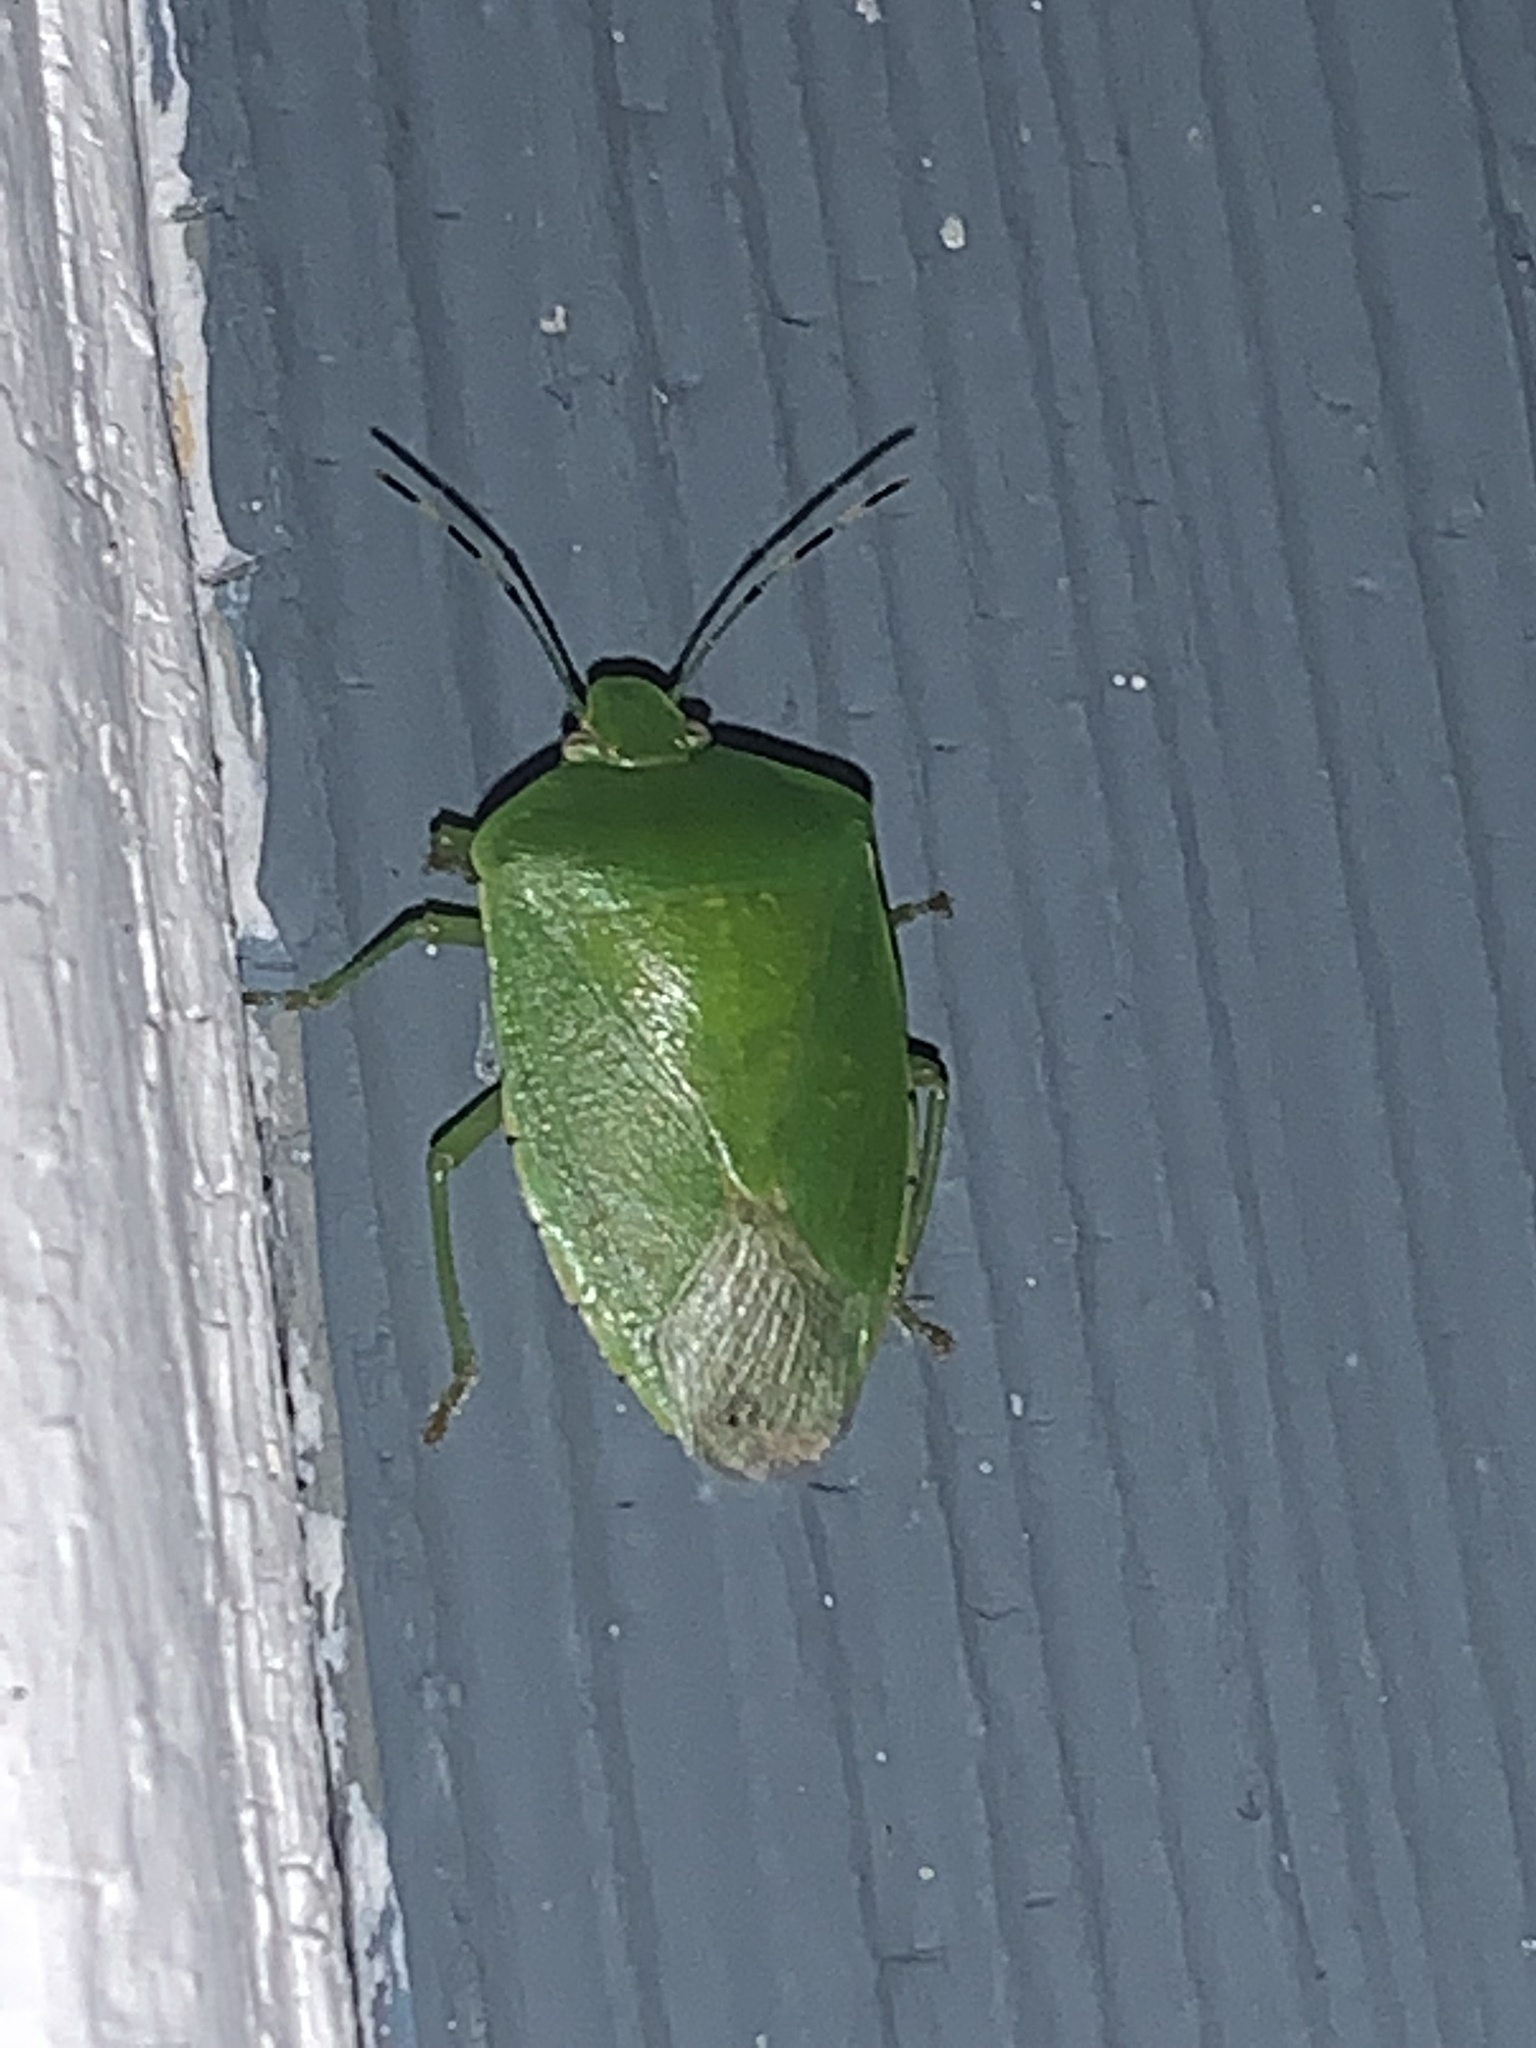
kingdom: Animalia
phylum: Arthropoda
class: Insecta
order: Hemiptera
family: Pentatomidae
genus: Chinavia
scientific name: Chinavia hilaris
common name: Green stink bug
